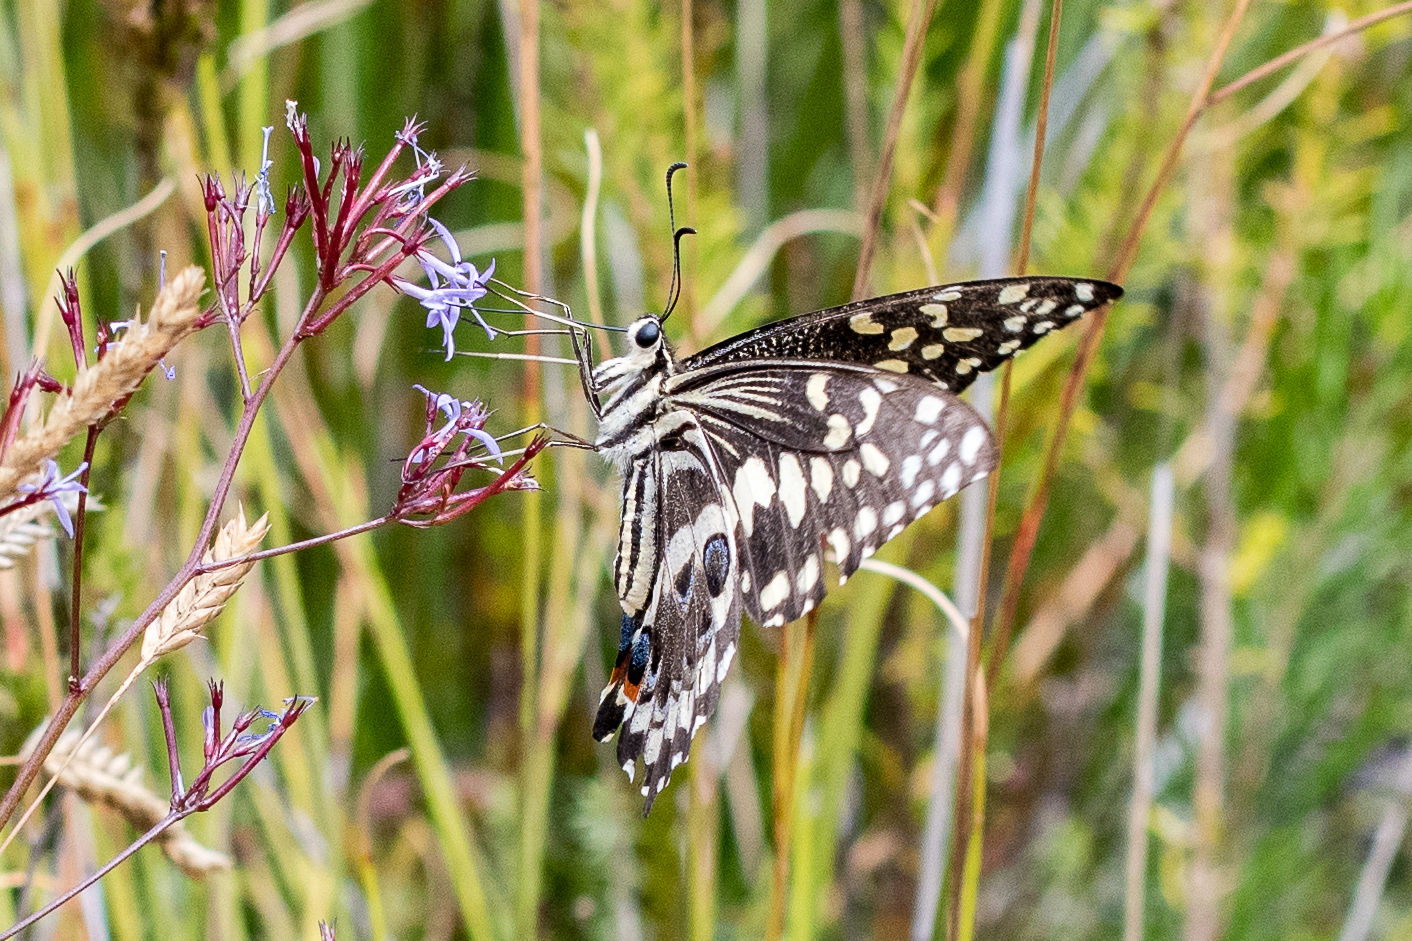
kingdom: Animalia
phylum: Arthropoda
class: Insecta
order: Lepidoptera
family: Papilionidae
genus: Papilio
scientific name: Papilio demodocus
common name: Christmas butterfly
